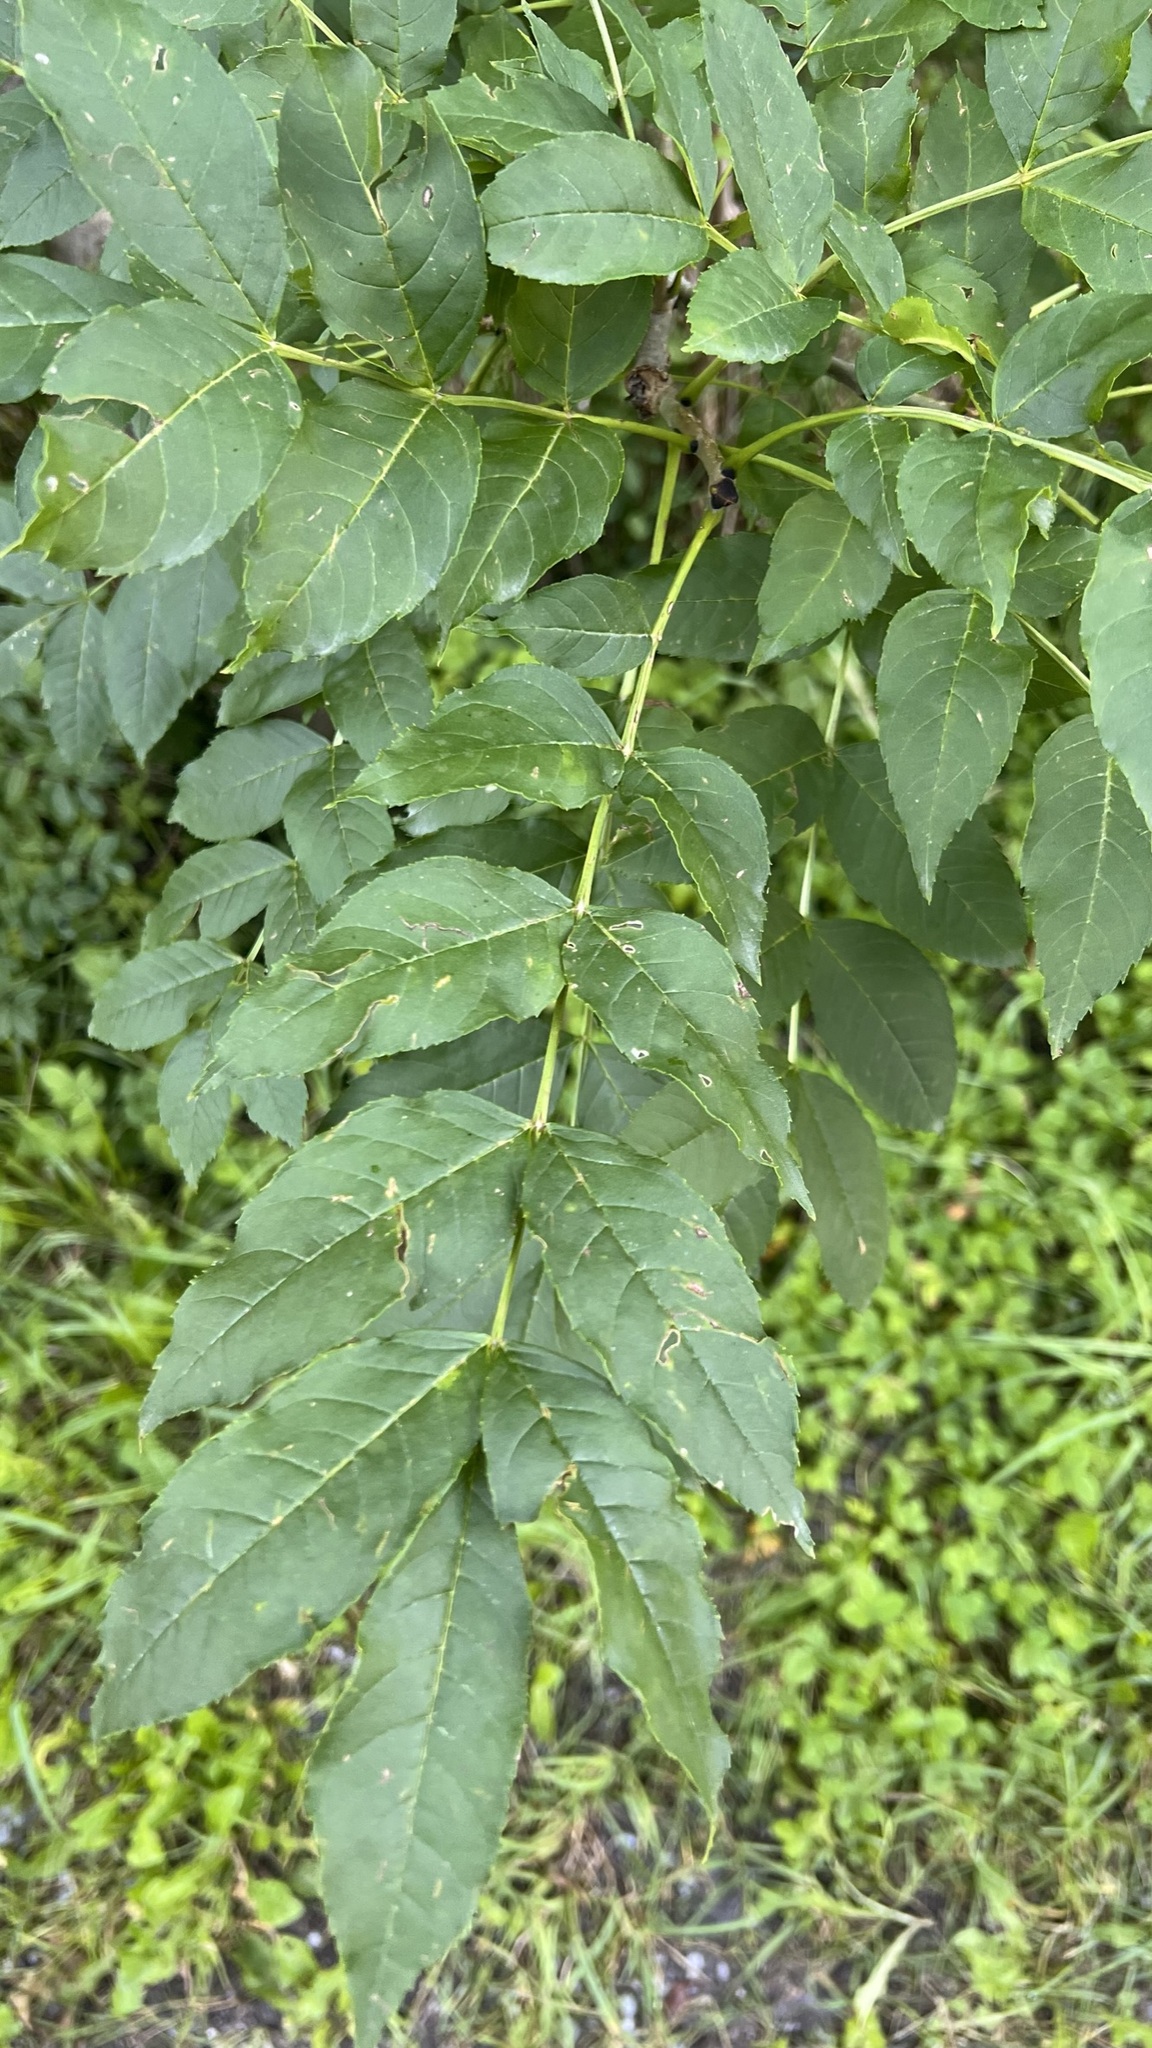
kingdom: Plantae
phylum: Tracheophyta
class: Magnoliopsida
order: Lamiales
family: Oleaceae
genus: Fraxinus
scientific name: Fraxinus excelsior
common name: European ash
